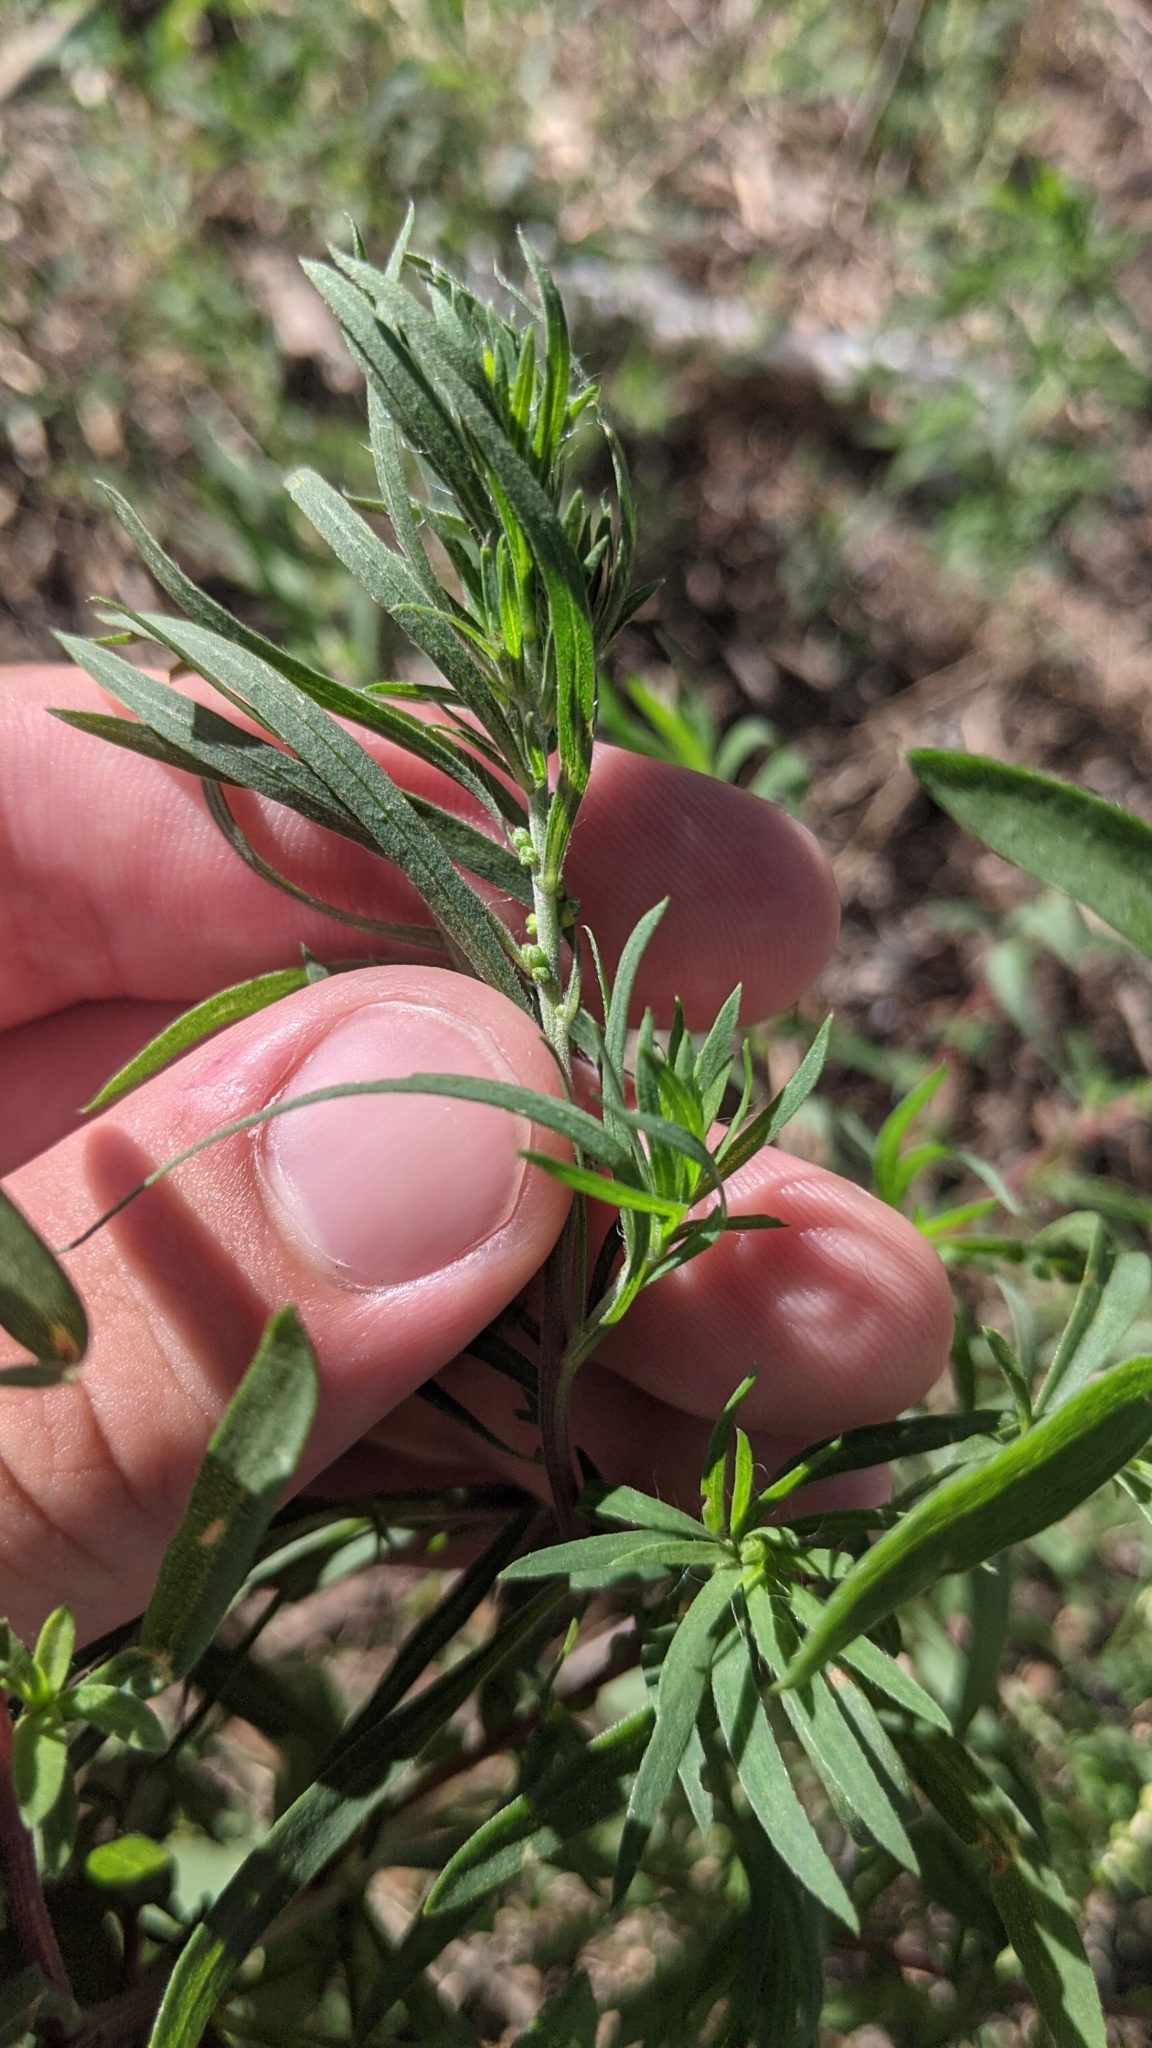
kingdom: Plantae
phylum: Tracheophyta
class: Magnoliopsida
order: Caryophyllales
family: Amaranthaceae
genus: Bassia
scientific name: Bassia scoparia
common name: Belvedere
